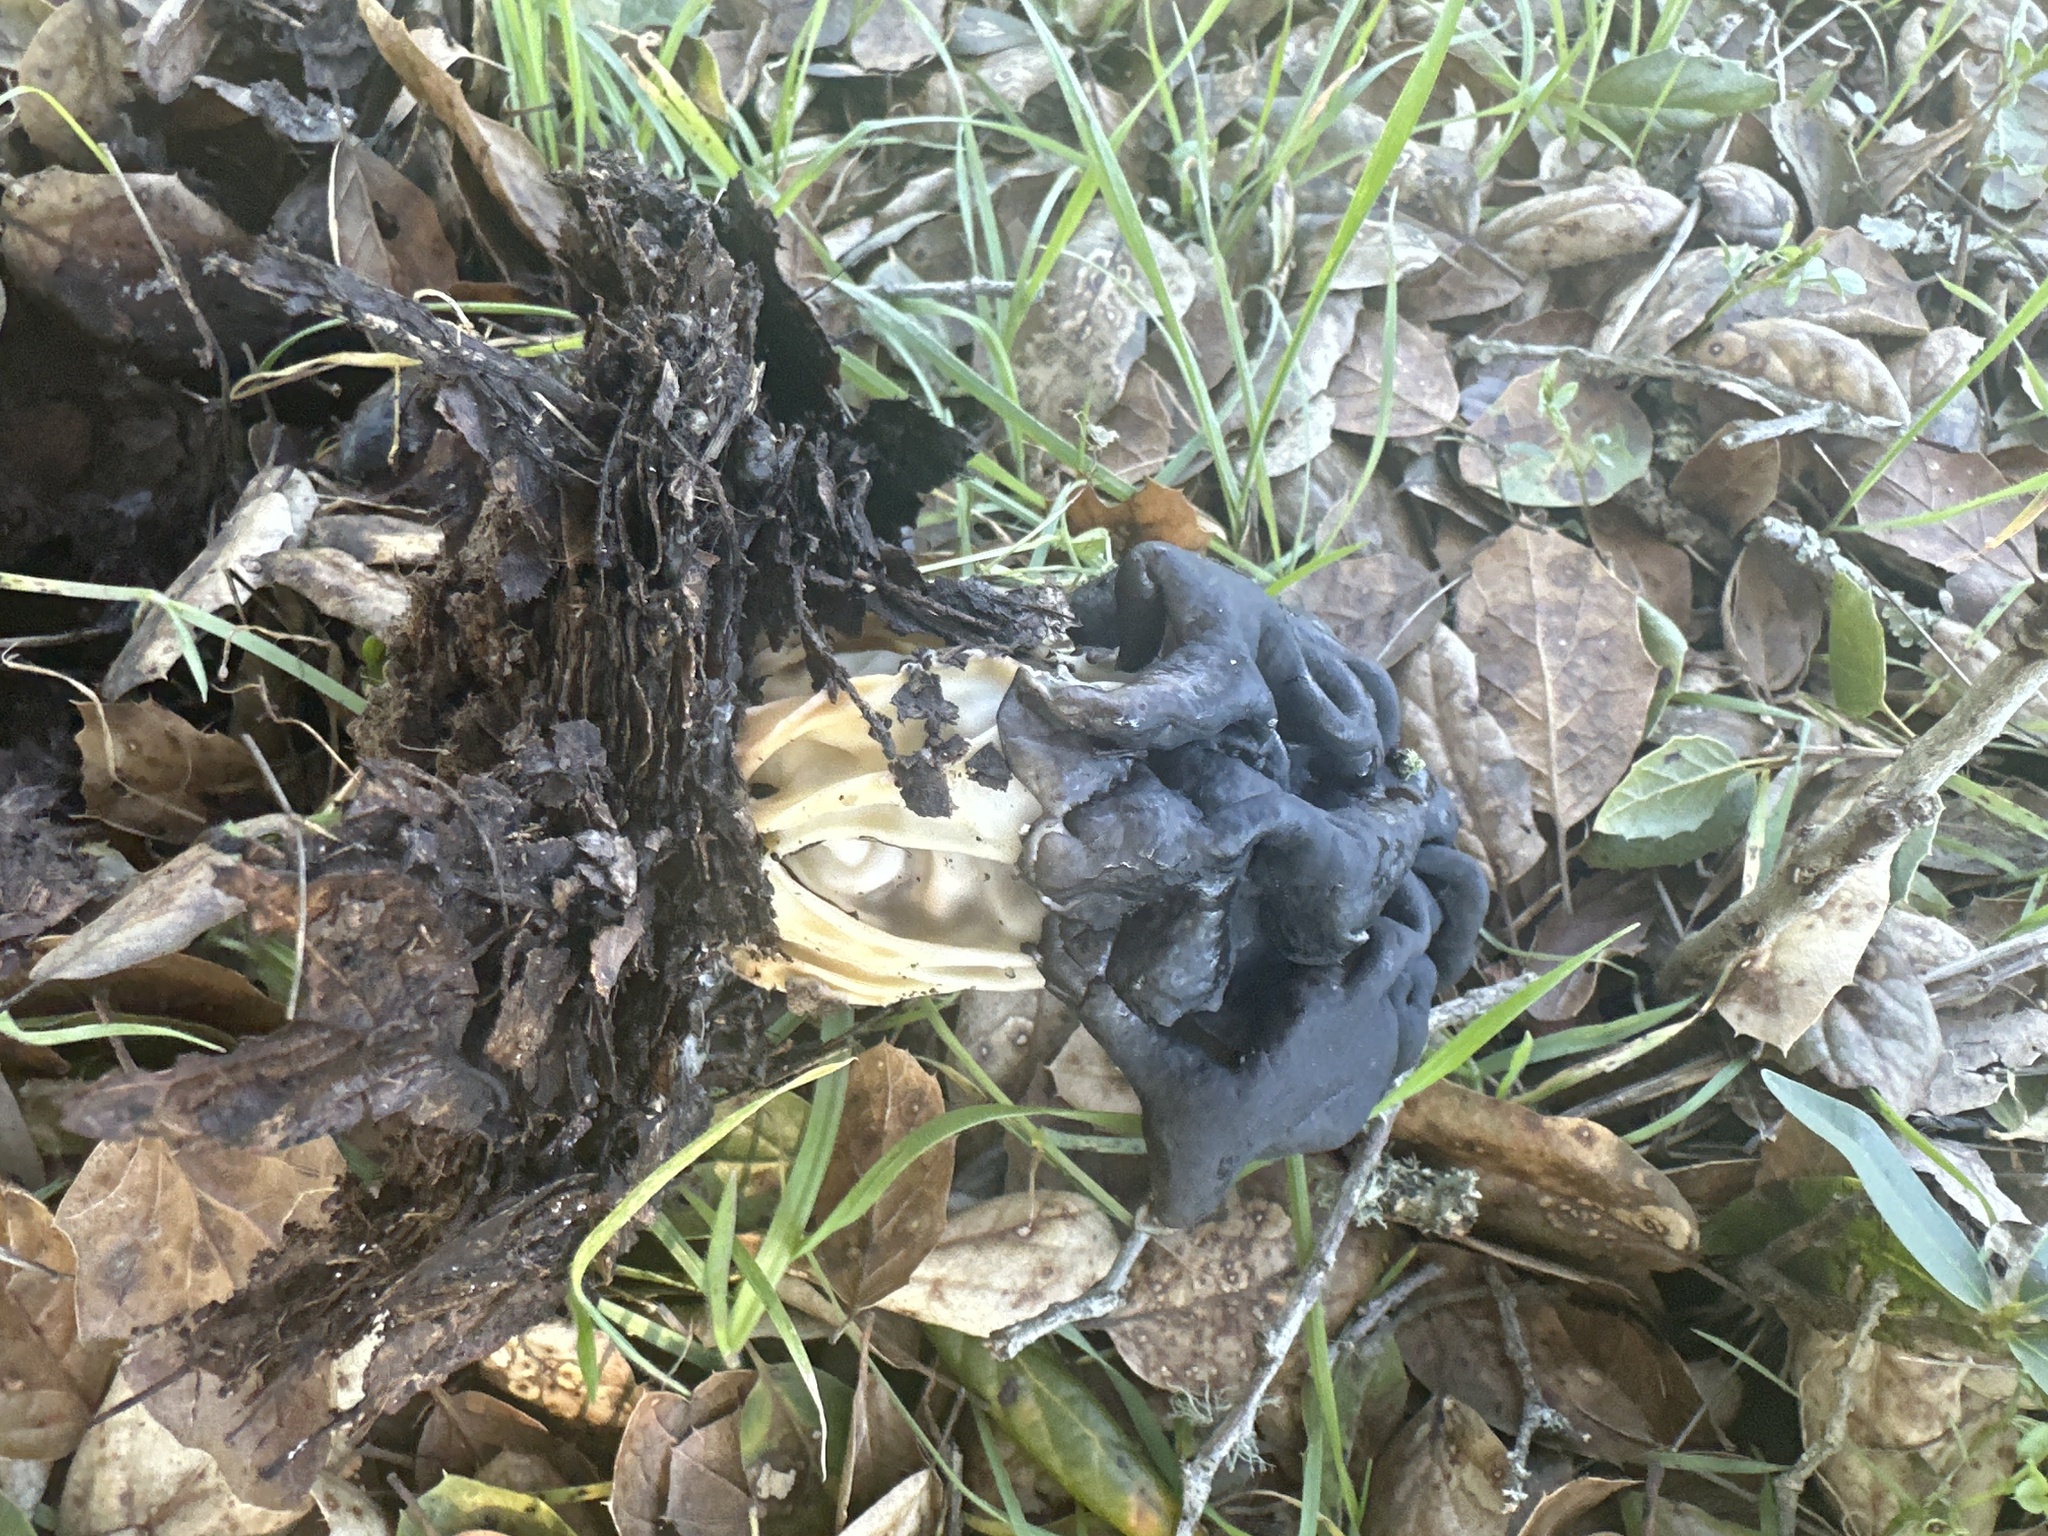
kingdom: Fungi
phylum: Ascomycota
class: Pezizomycetes
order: Pezizales
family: Helvellaceae
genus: Helvella
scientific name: Helvella dryophila
